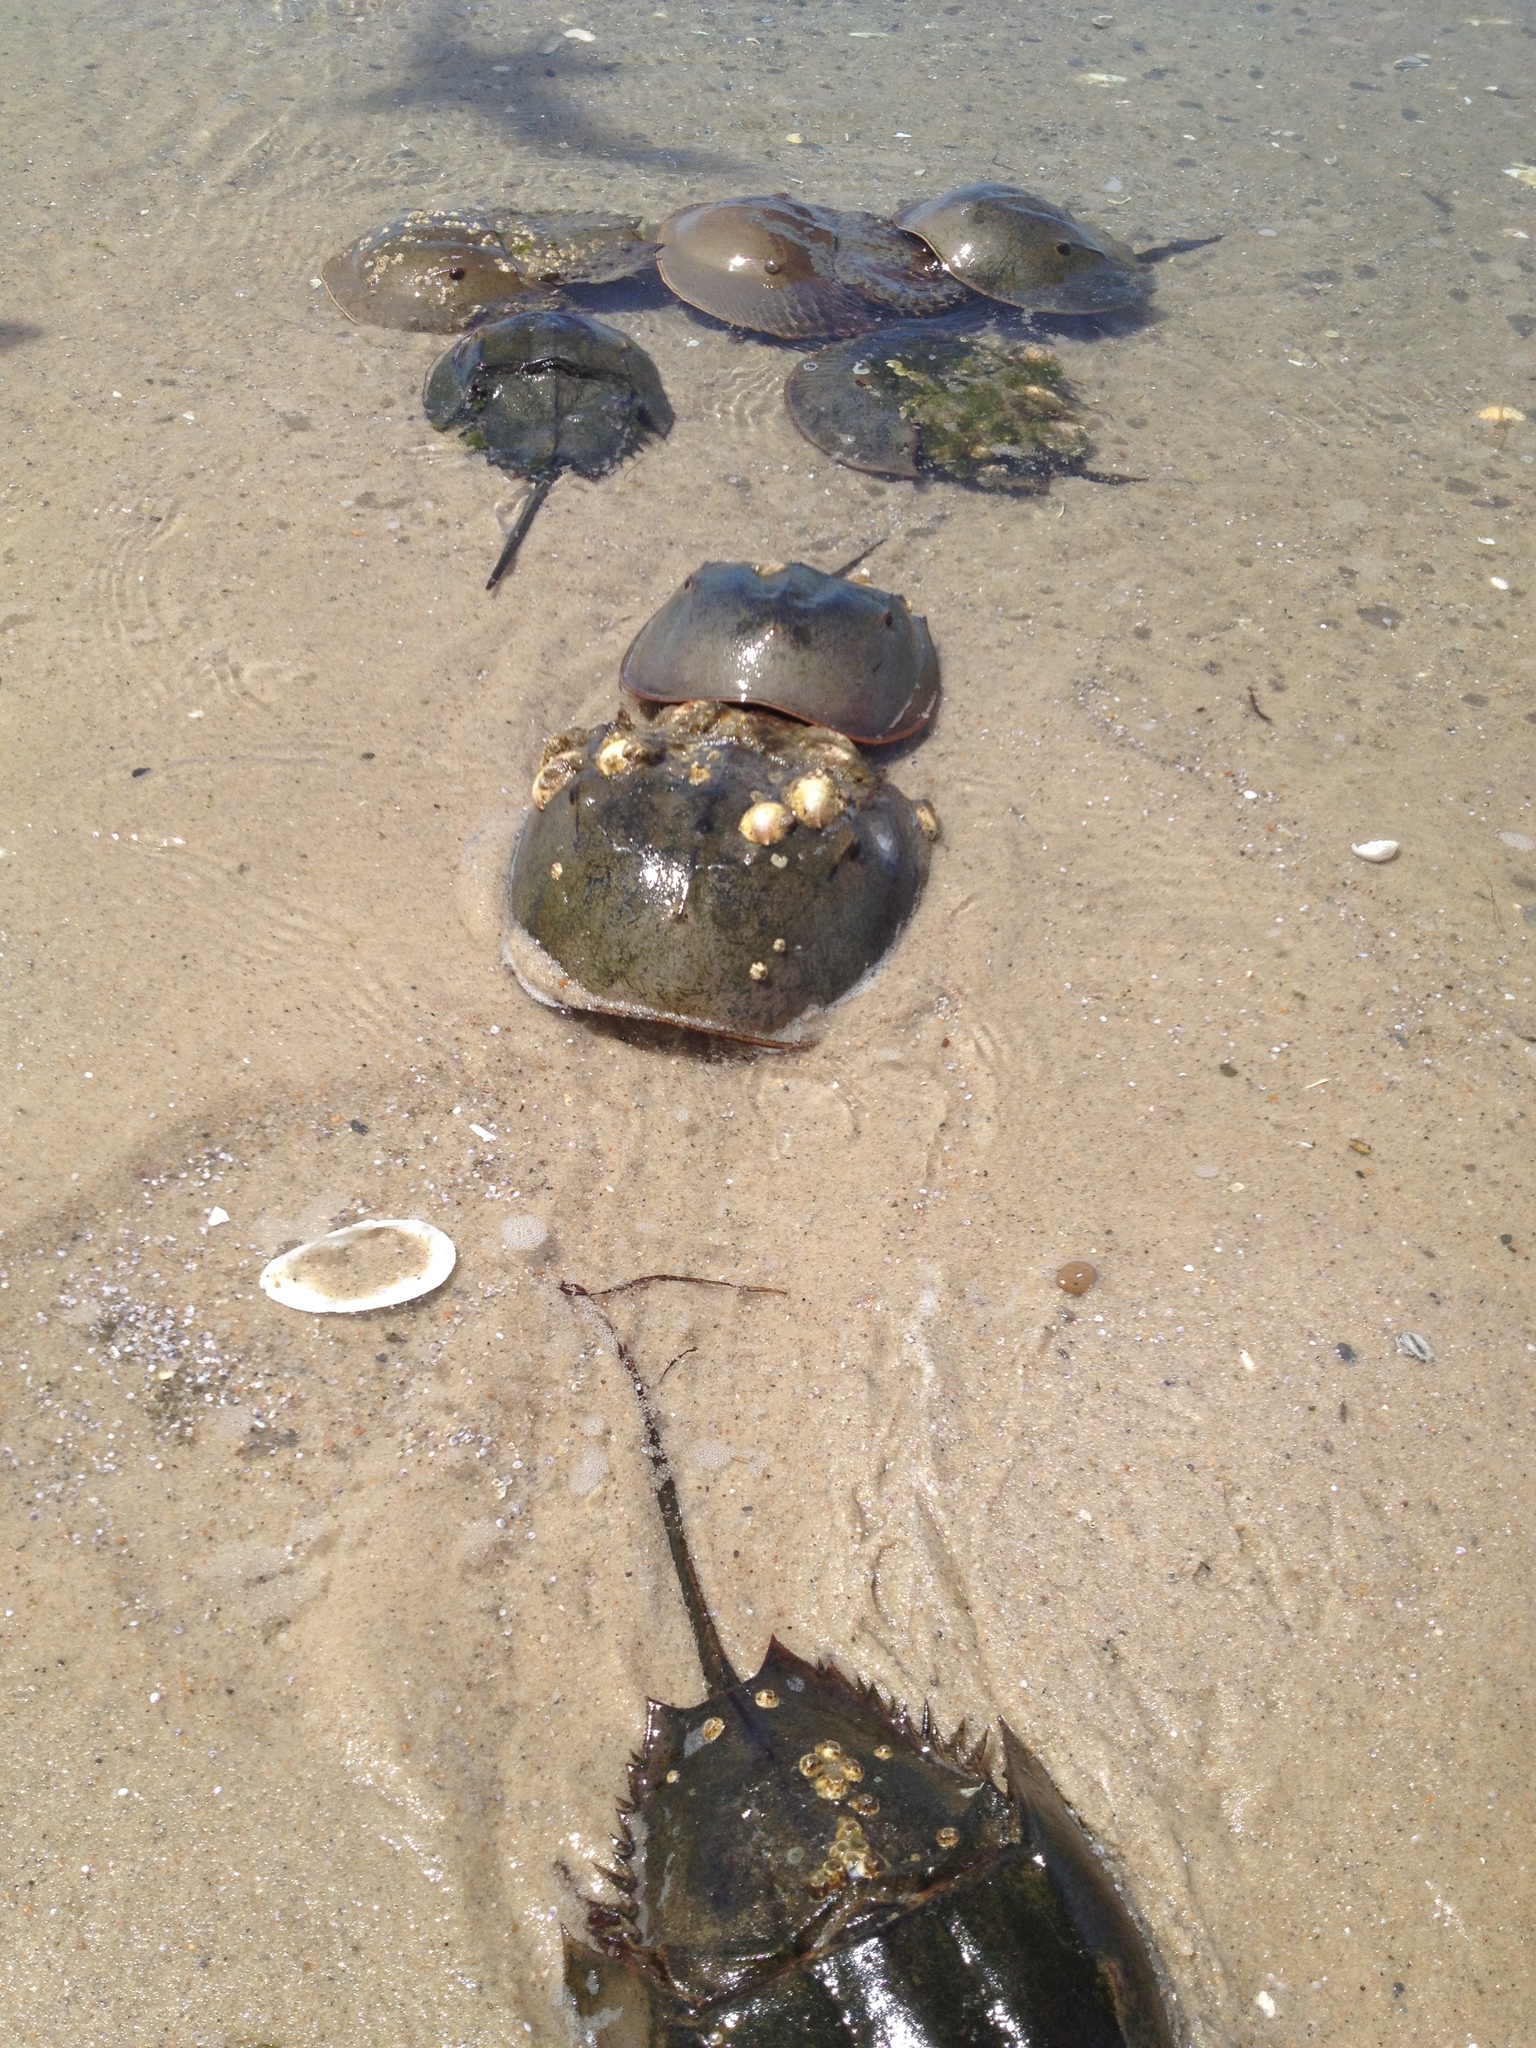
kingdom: Animalia
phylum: Arthropoda
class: Merostomata
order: Xiphosurida
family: Limulidae
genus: Limulus
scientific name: Limulus polyphemus
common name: Horseshoe crab
